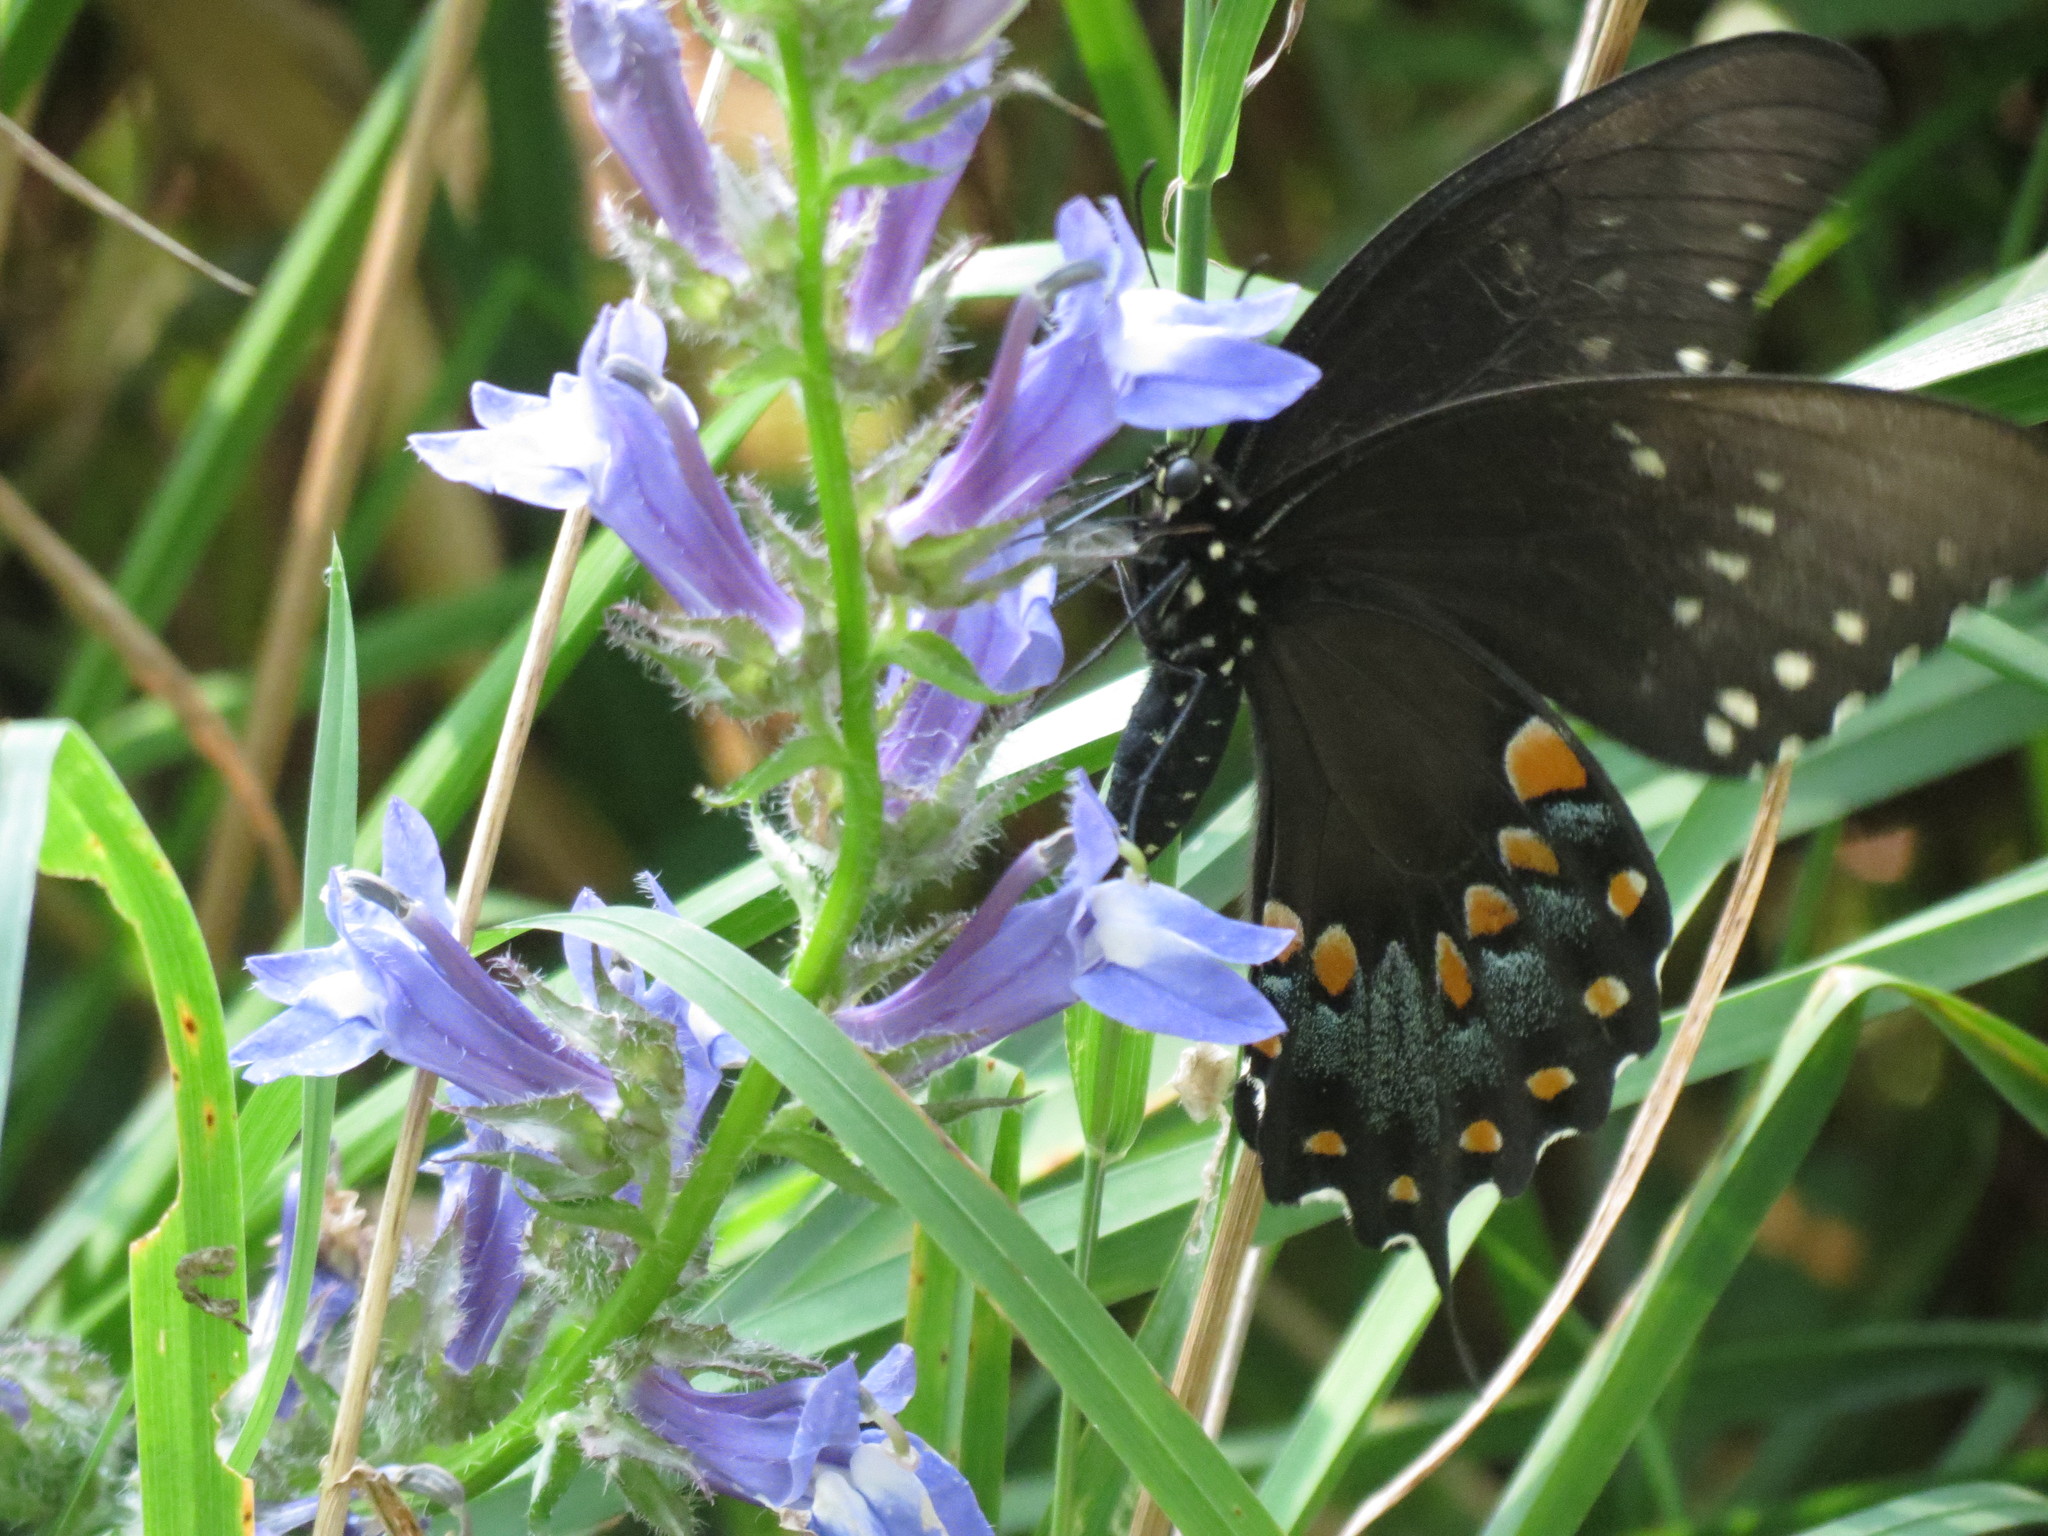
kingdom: Animalia
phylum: Arthropoda
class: Insecta
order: Lepidoptera
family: Papilionidae
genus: Papilio
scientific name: Papilio troilus
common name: Spicebush swallowtail
